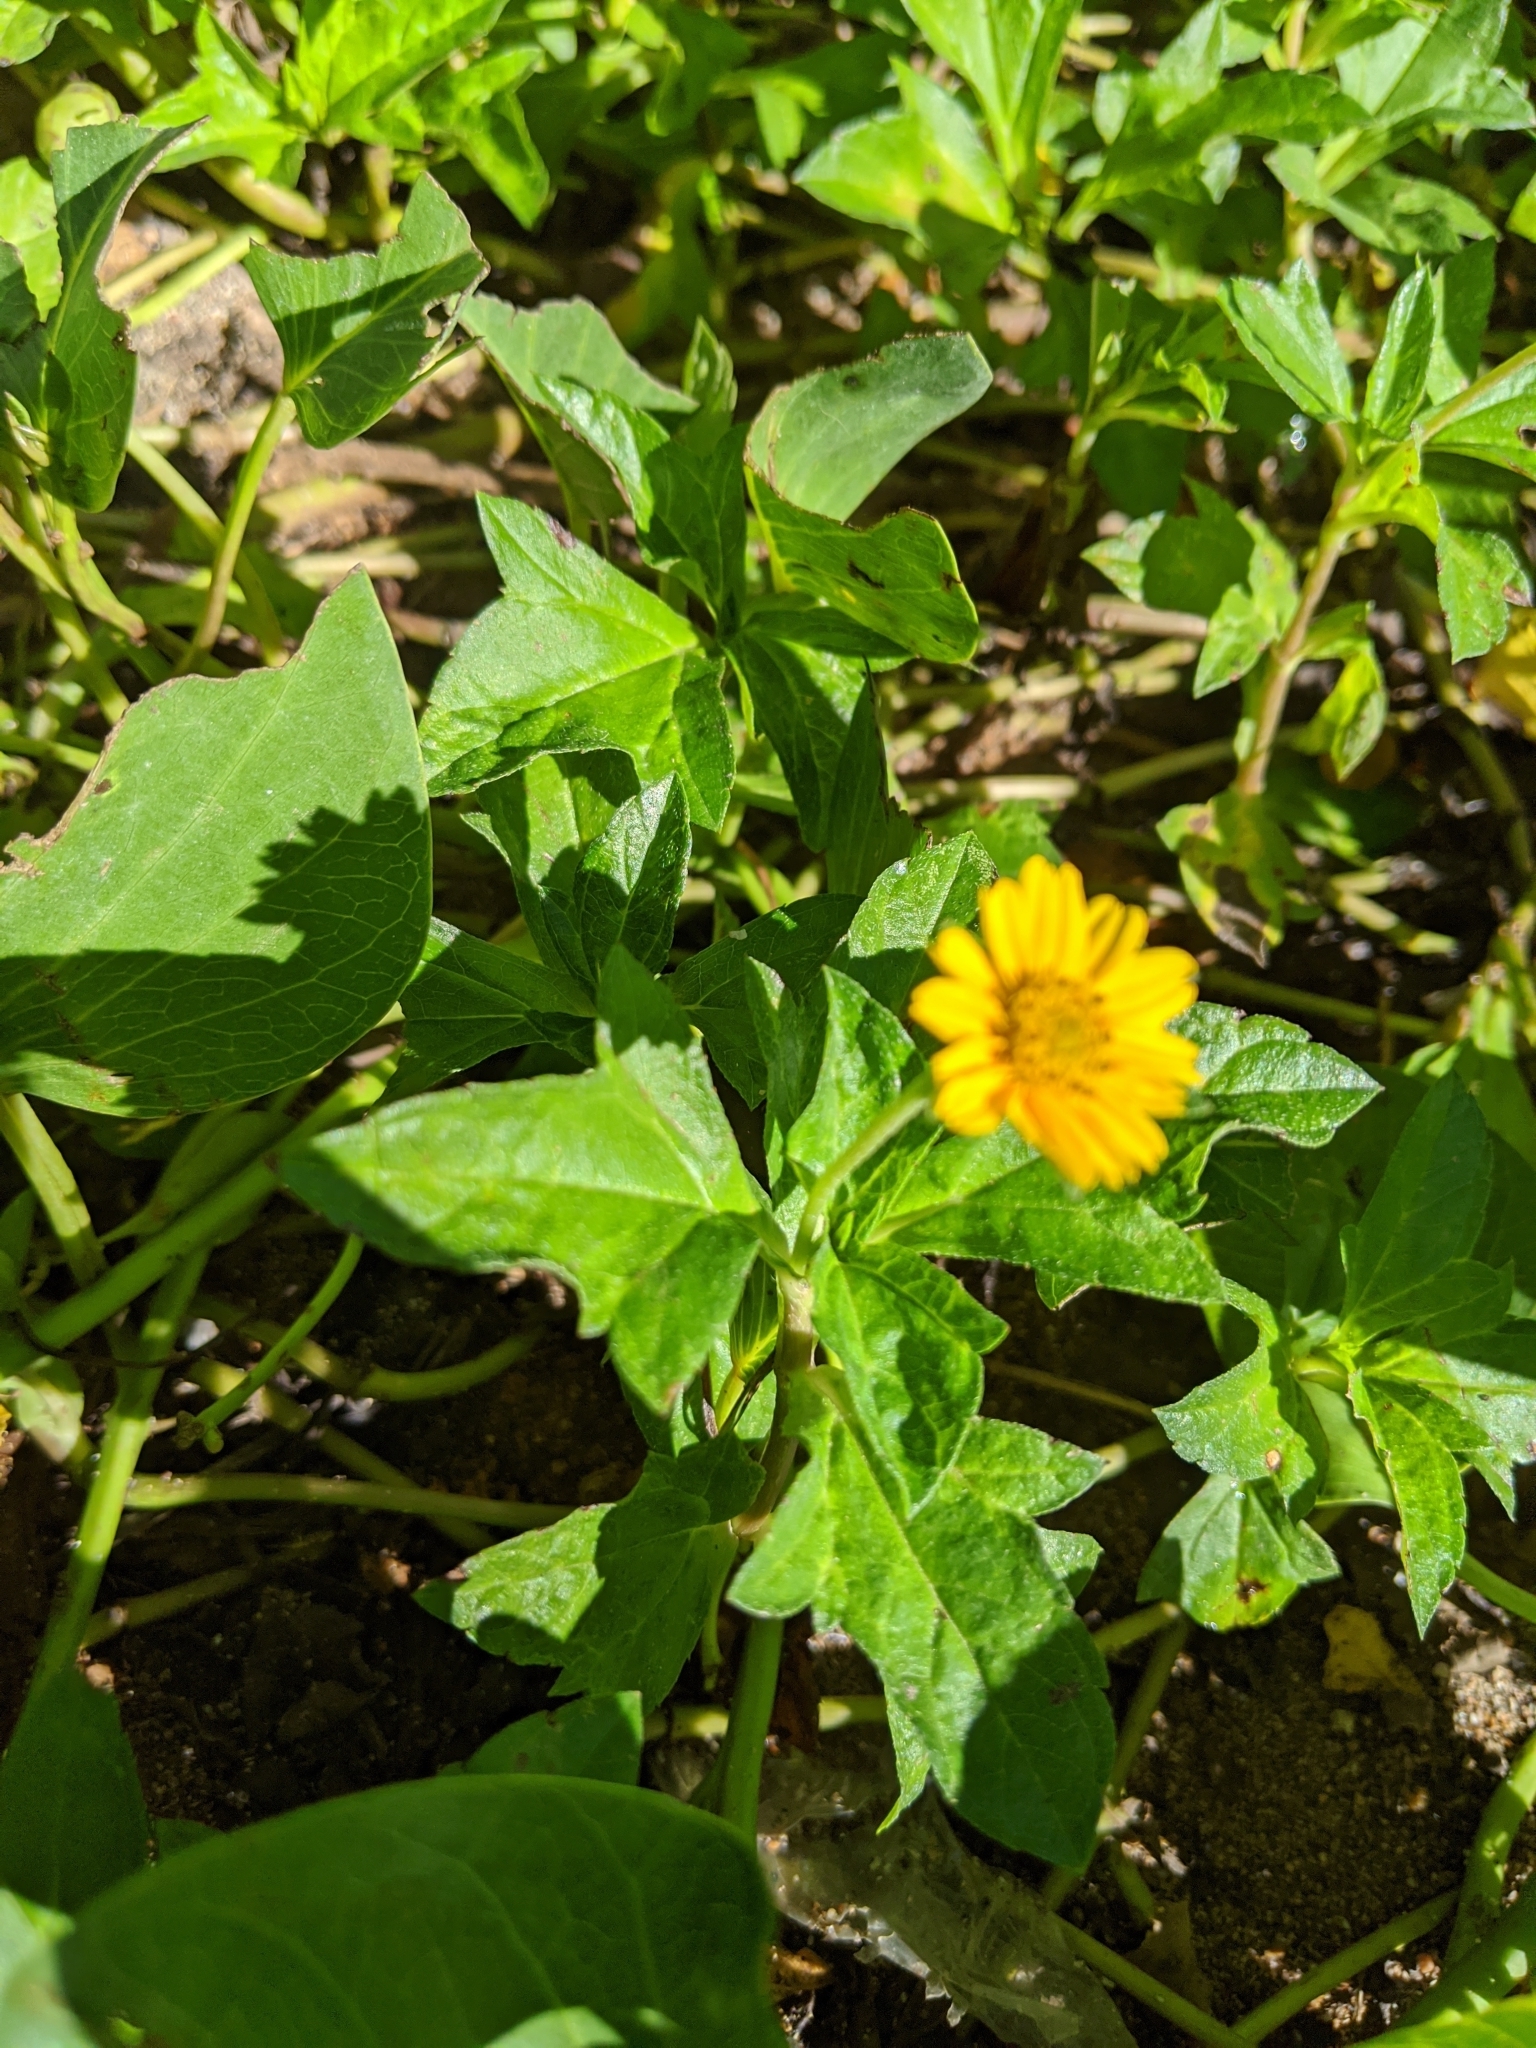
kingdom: Plantae
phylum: Tracheophyta
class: Magnoliopsida
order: Asterales
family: Asteraceae
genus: Sphagneticola
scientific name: Sphagneticola trilobata
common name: Bay biscayne creeping-oxeye
